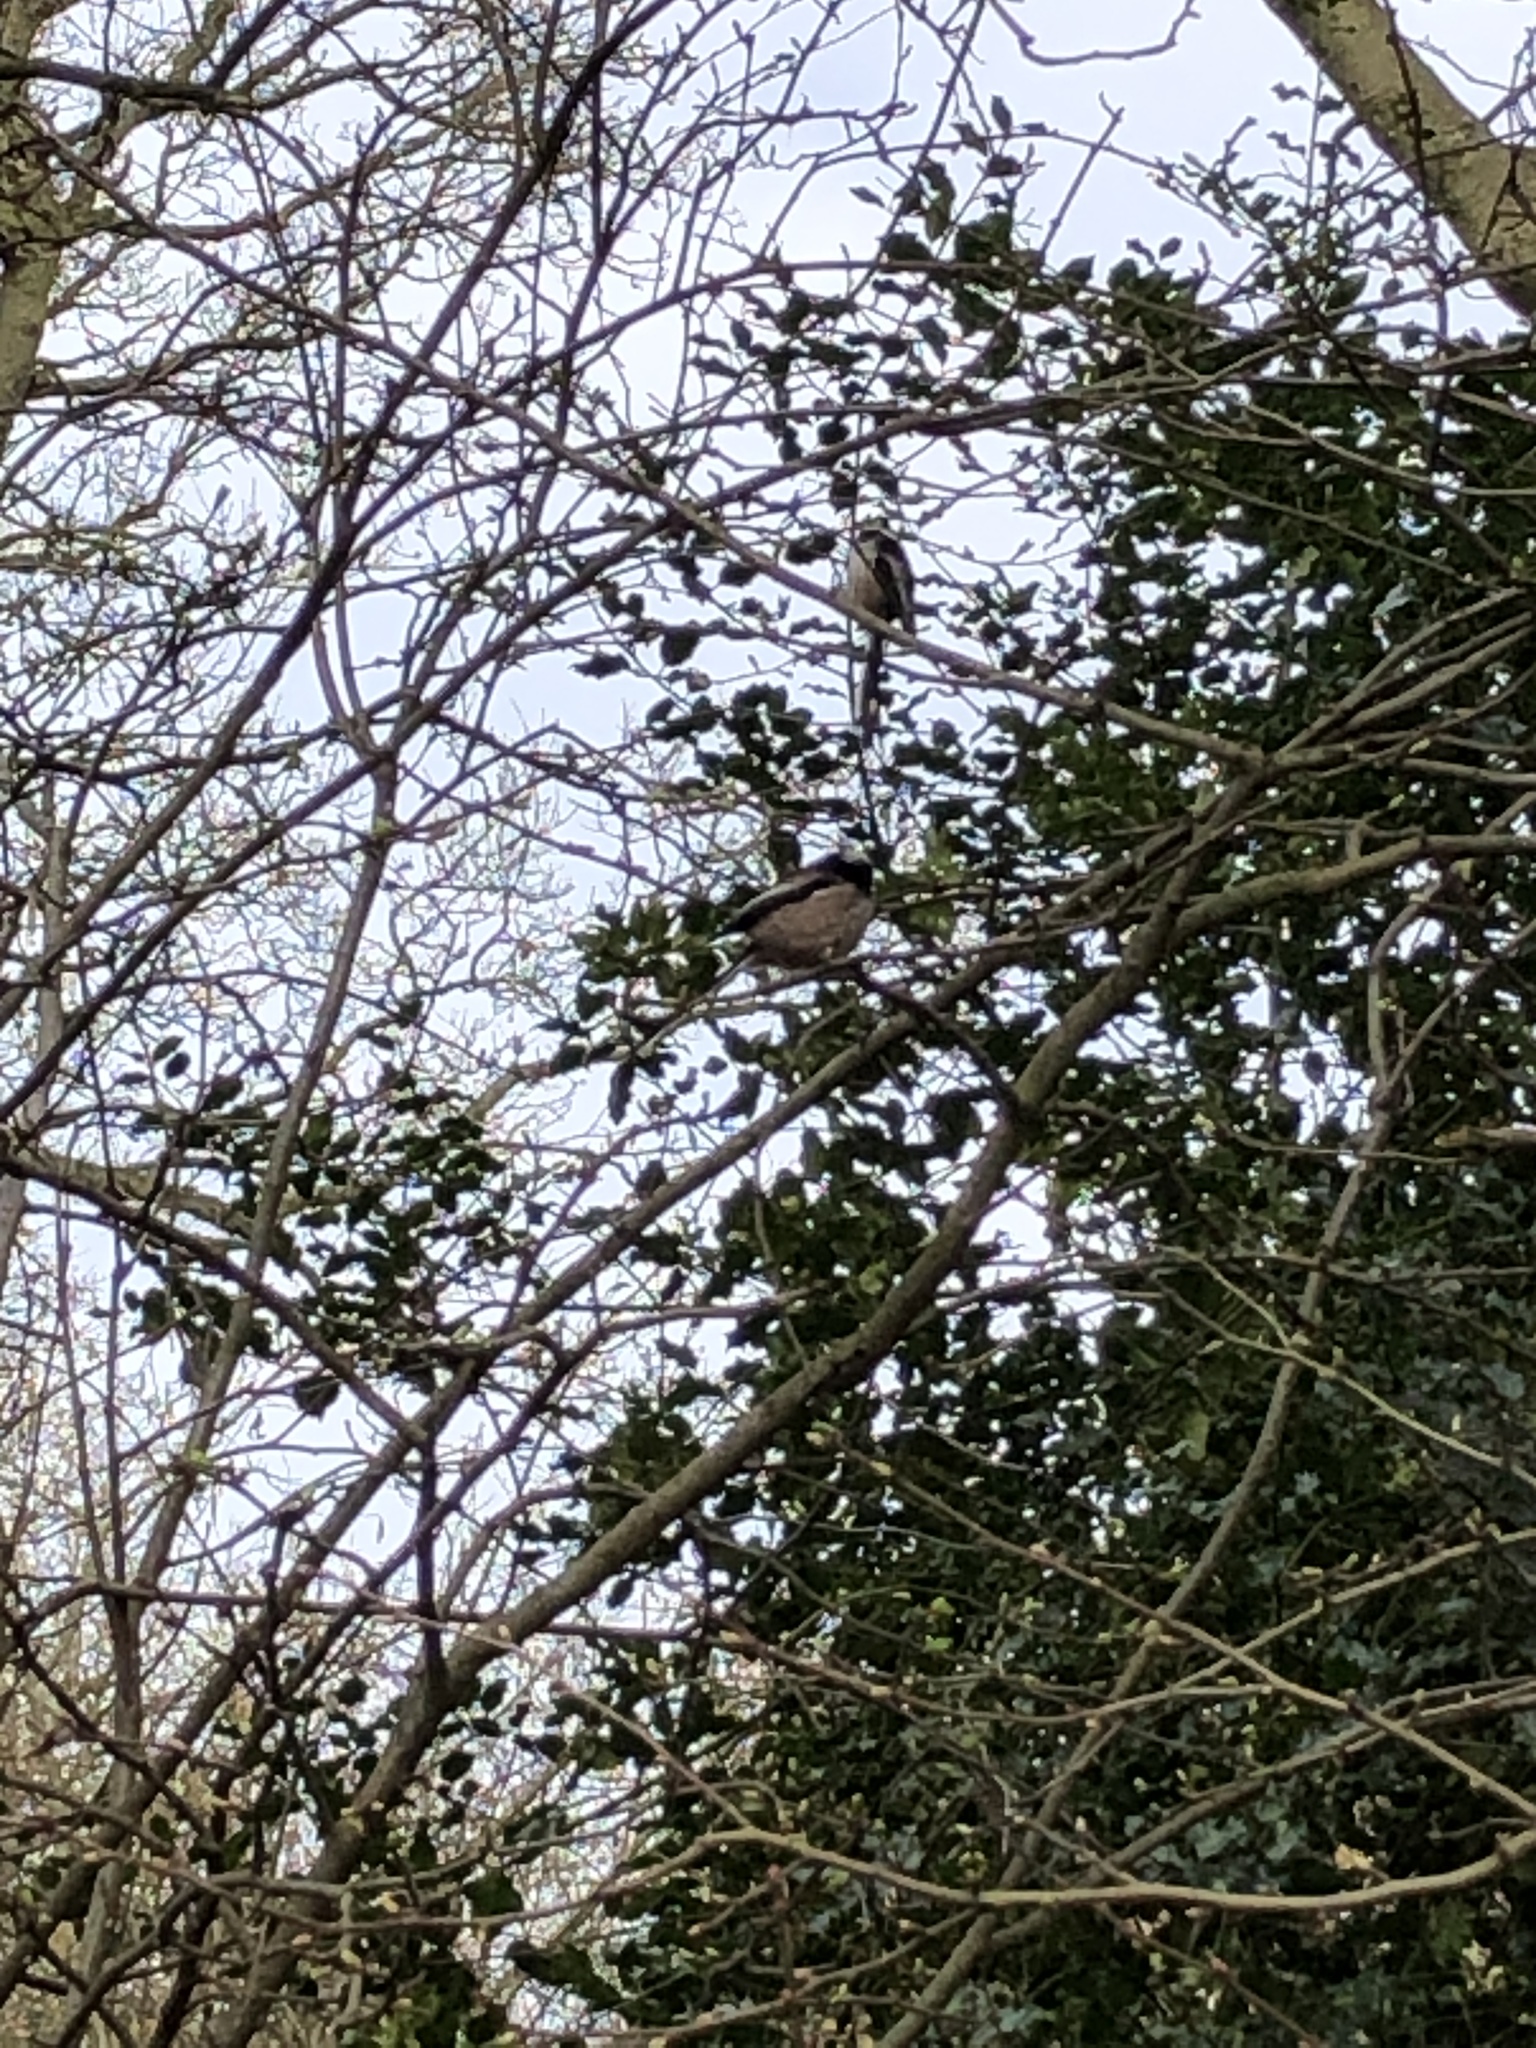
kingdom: Animalia
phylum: Chordata
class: Aves
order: Passeriformes
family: Aegithalidae
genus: Aegithalos
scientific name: Aegithalos caudatus
